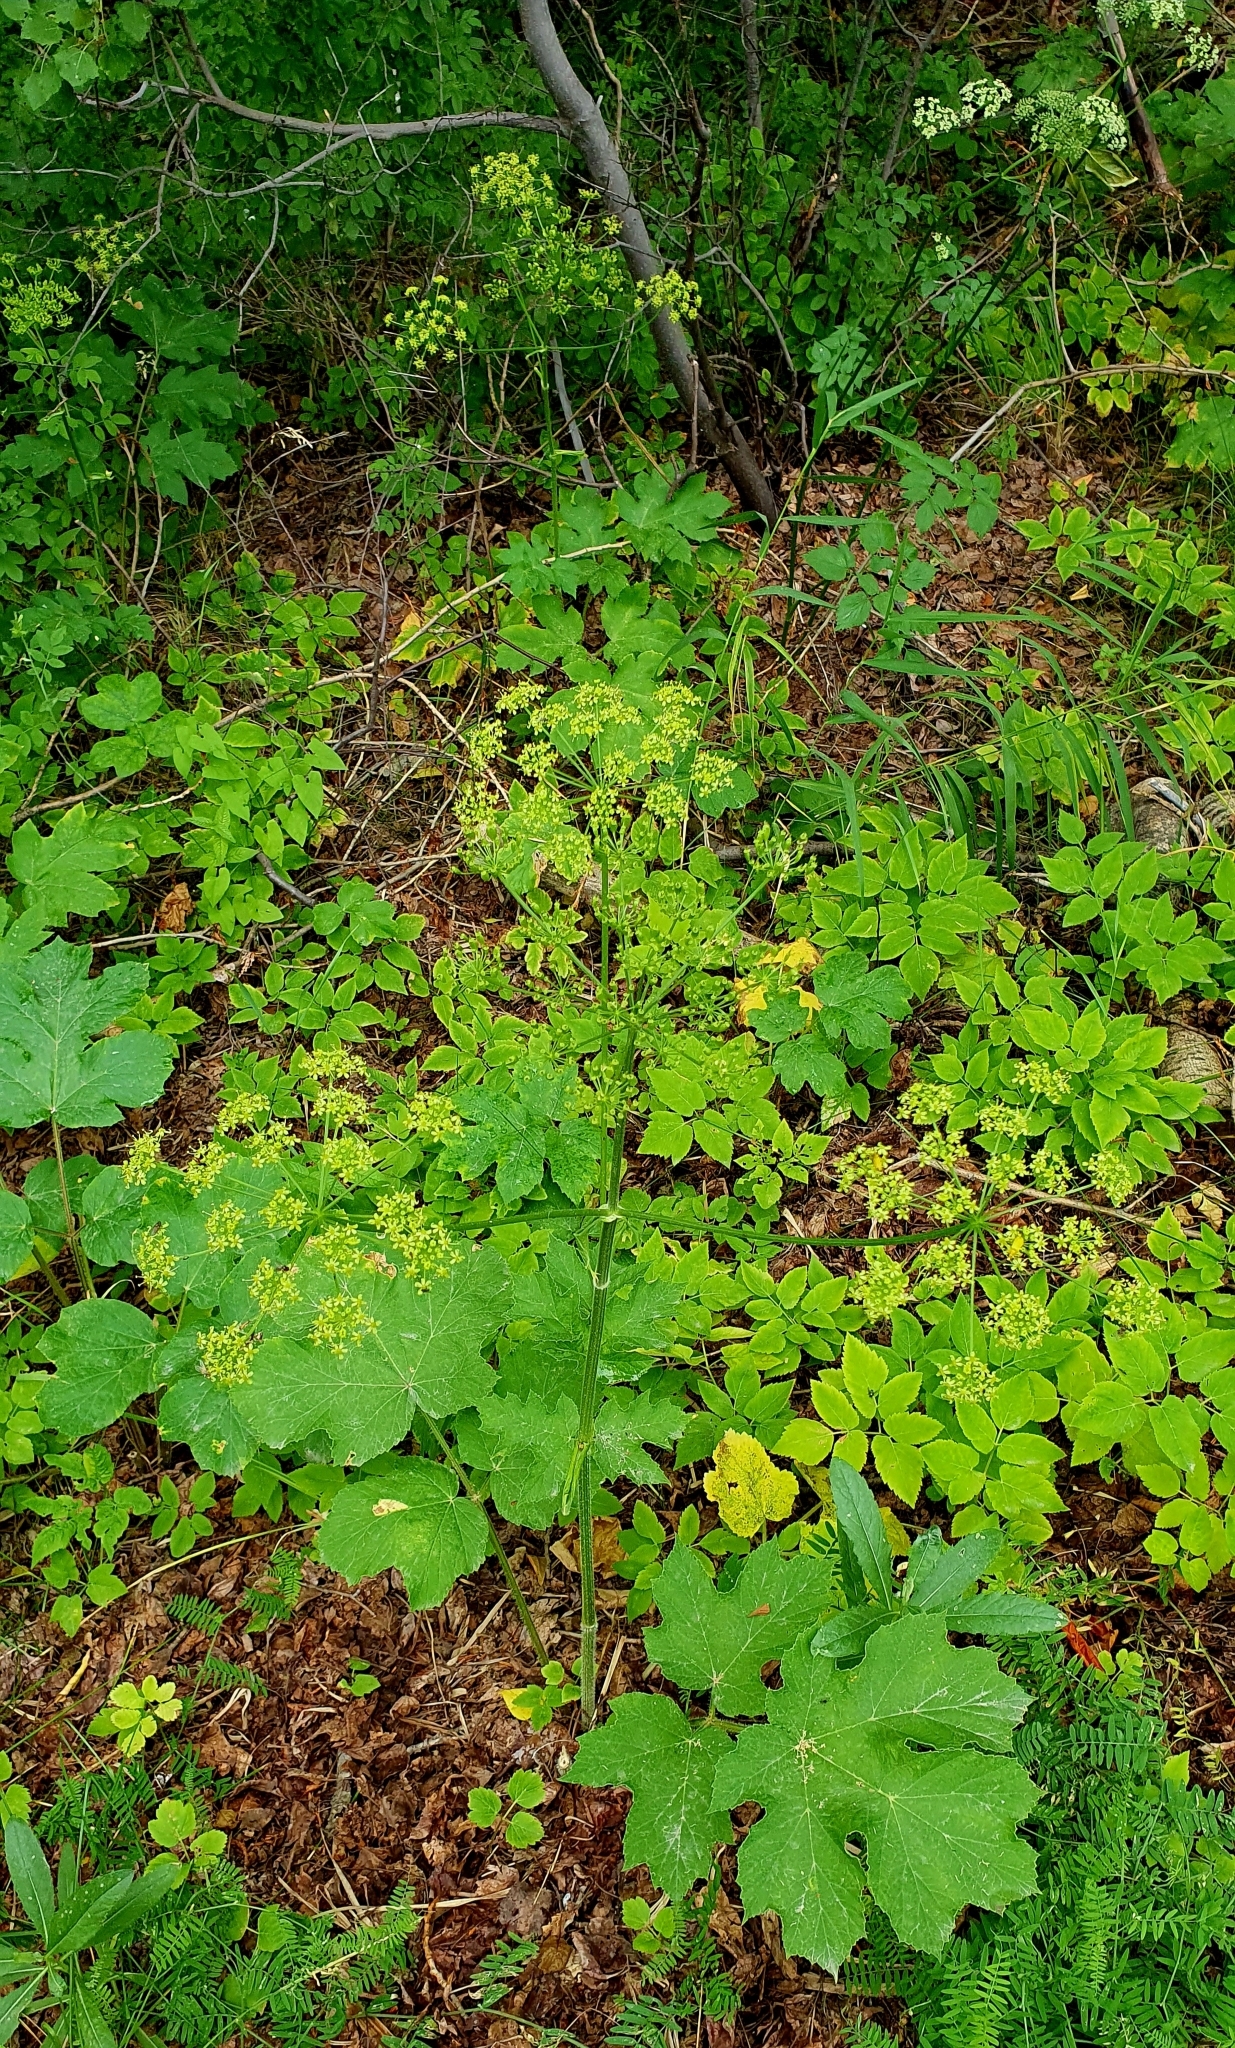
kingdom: Plantae
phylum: Tracheophyta
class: Magnoliopsida
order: Apiales
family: Apiaceae
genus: Heracleum
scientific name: Heracleum sphondylium
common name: Hogweed
